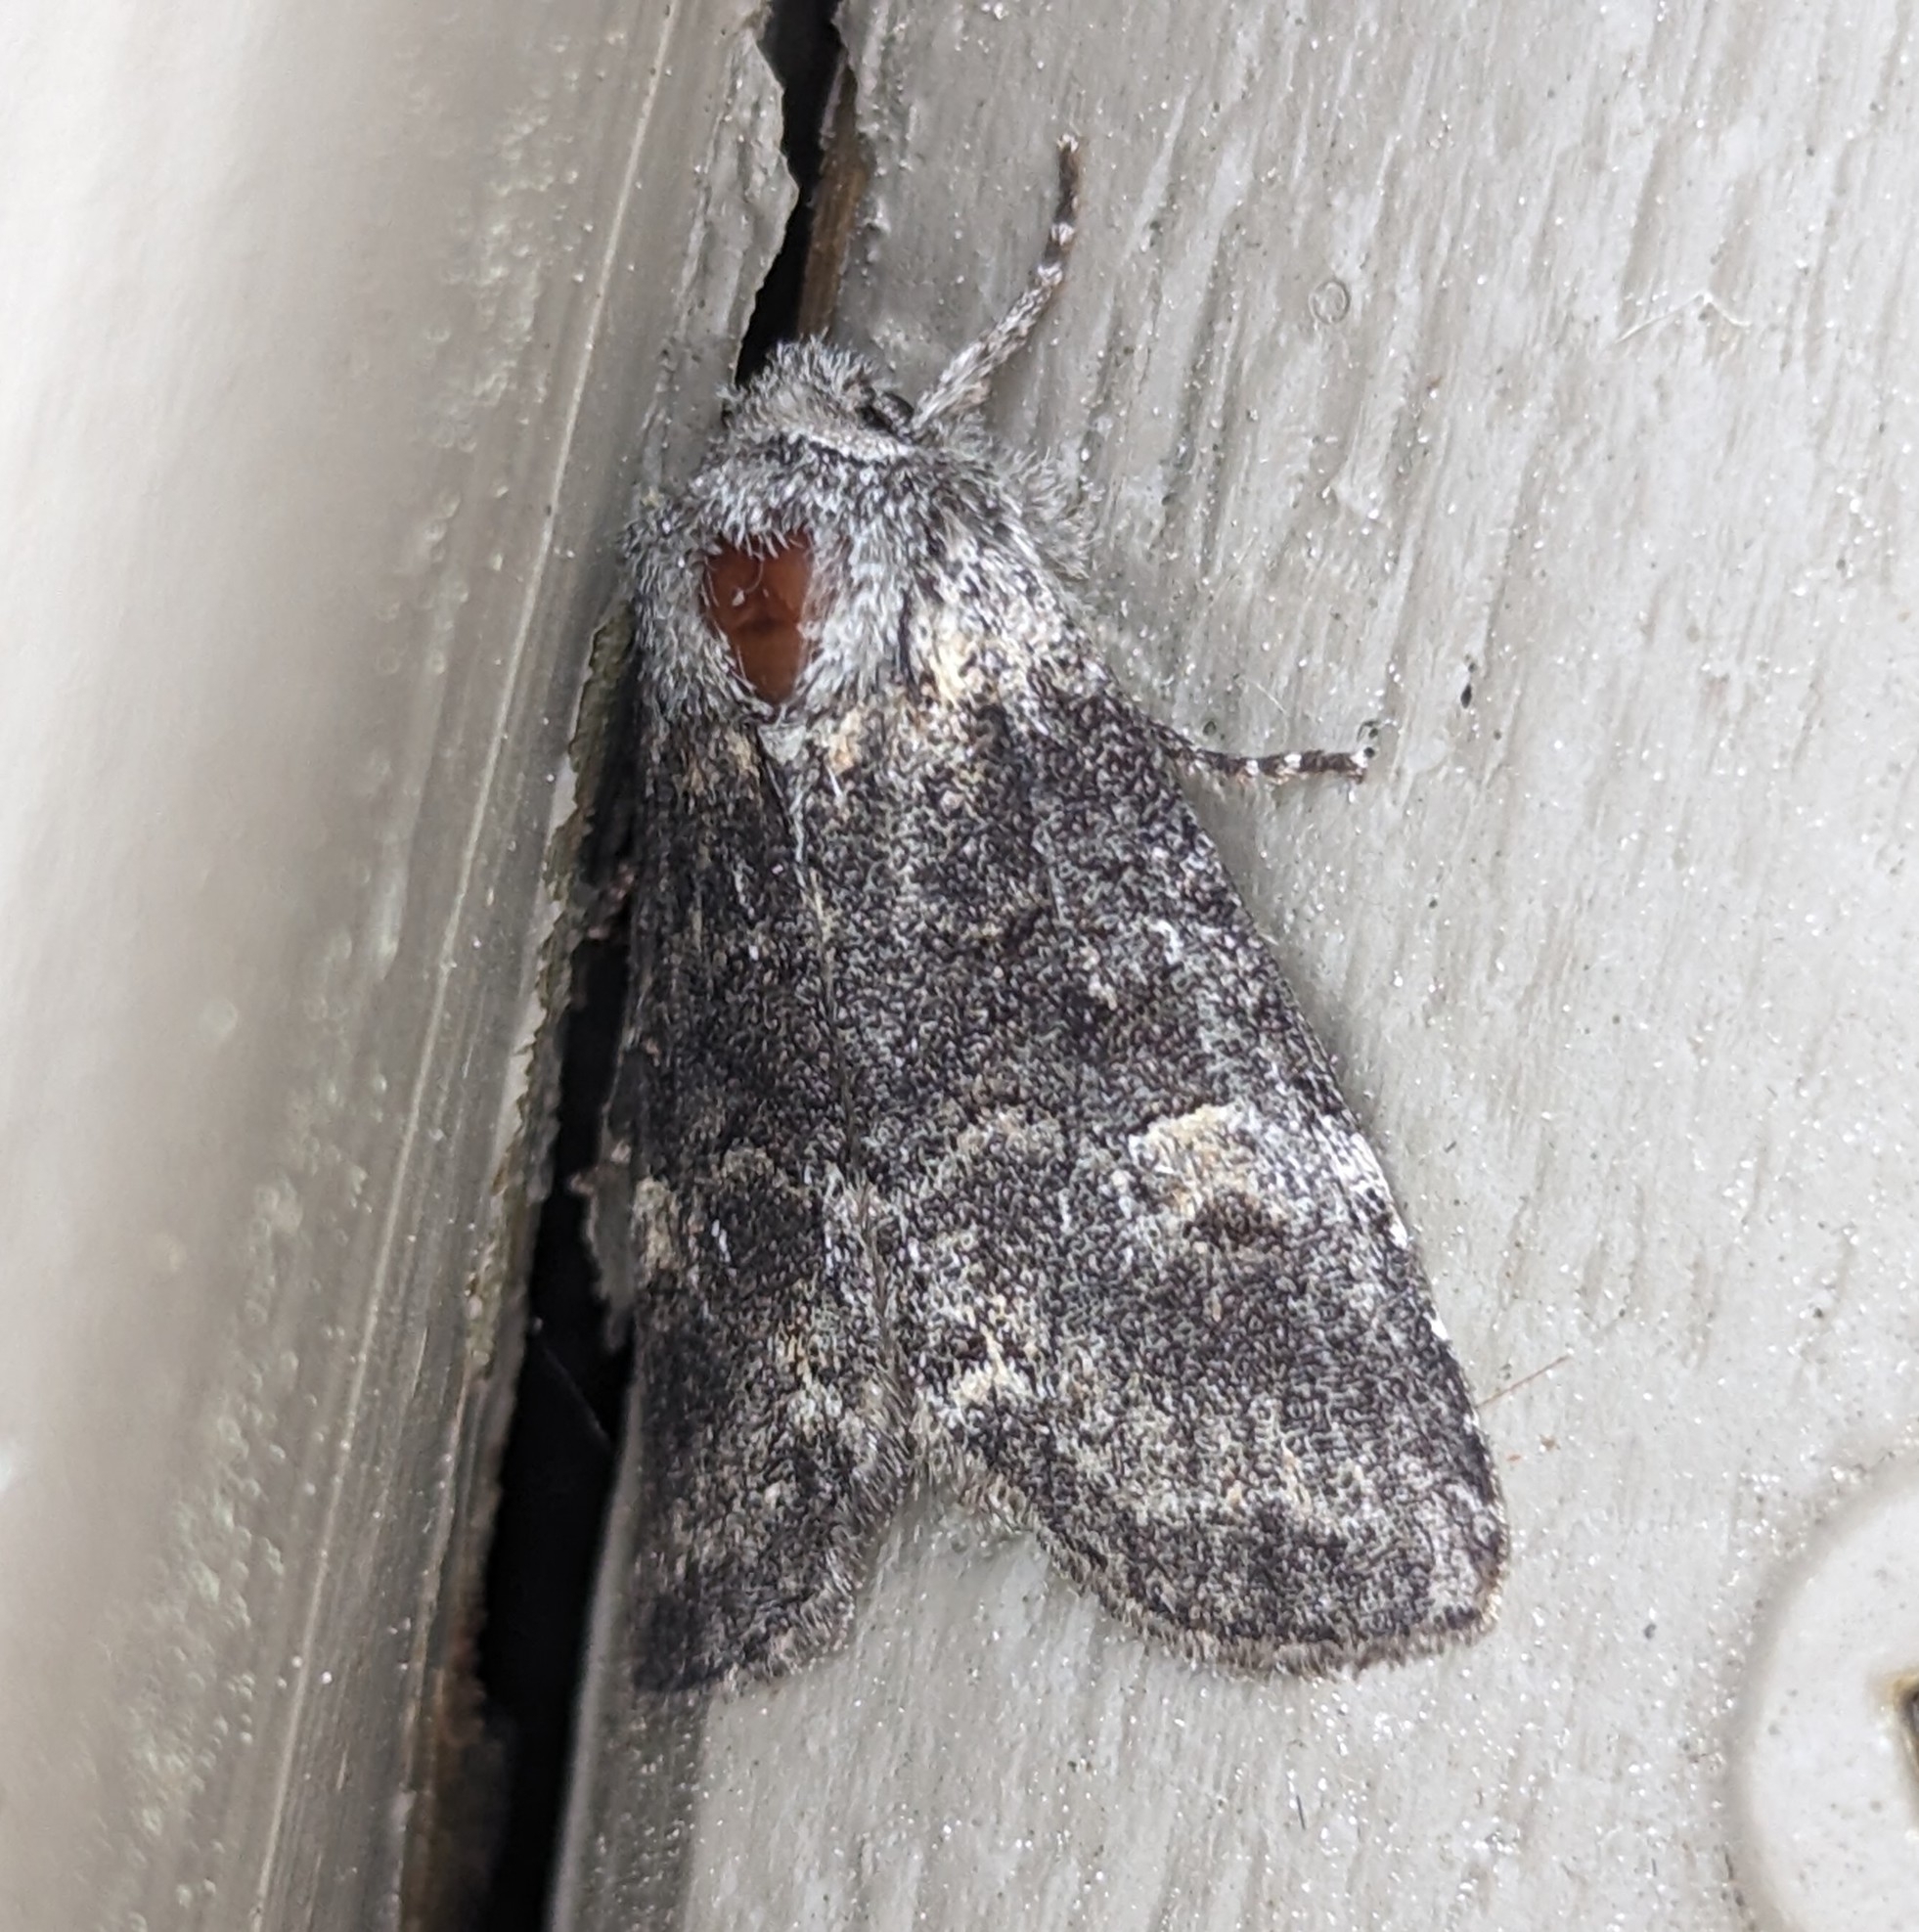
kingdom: Animalia
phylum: Arthropoda
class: Insecta
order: Lepidoptera
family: Noctuidae
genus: Brachylomia
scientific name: Brachylomia discinigra
